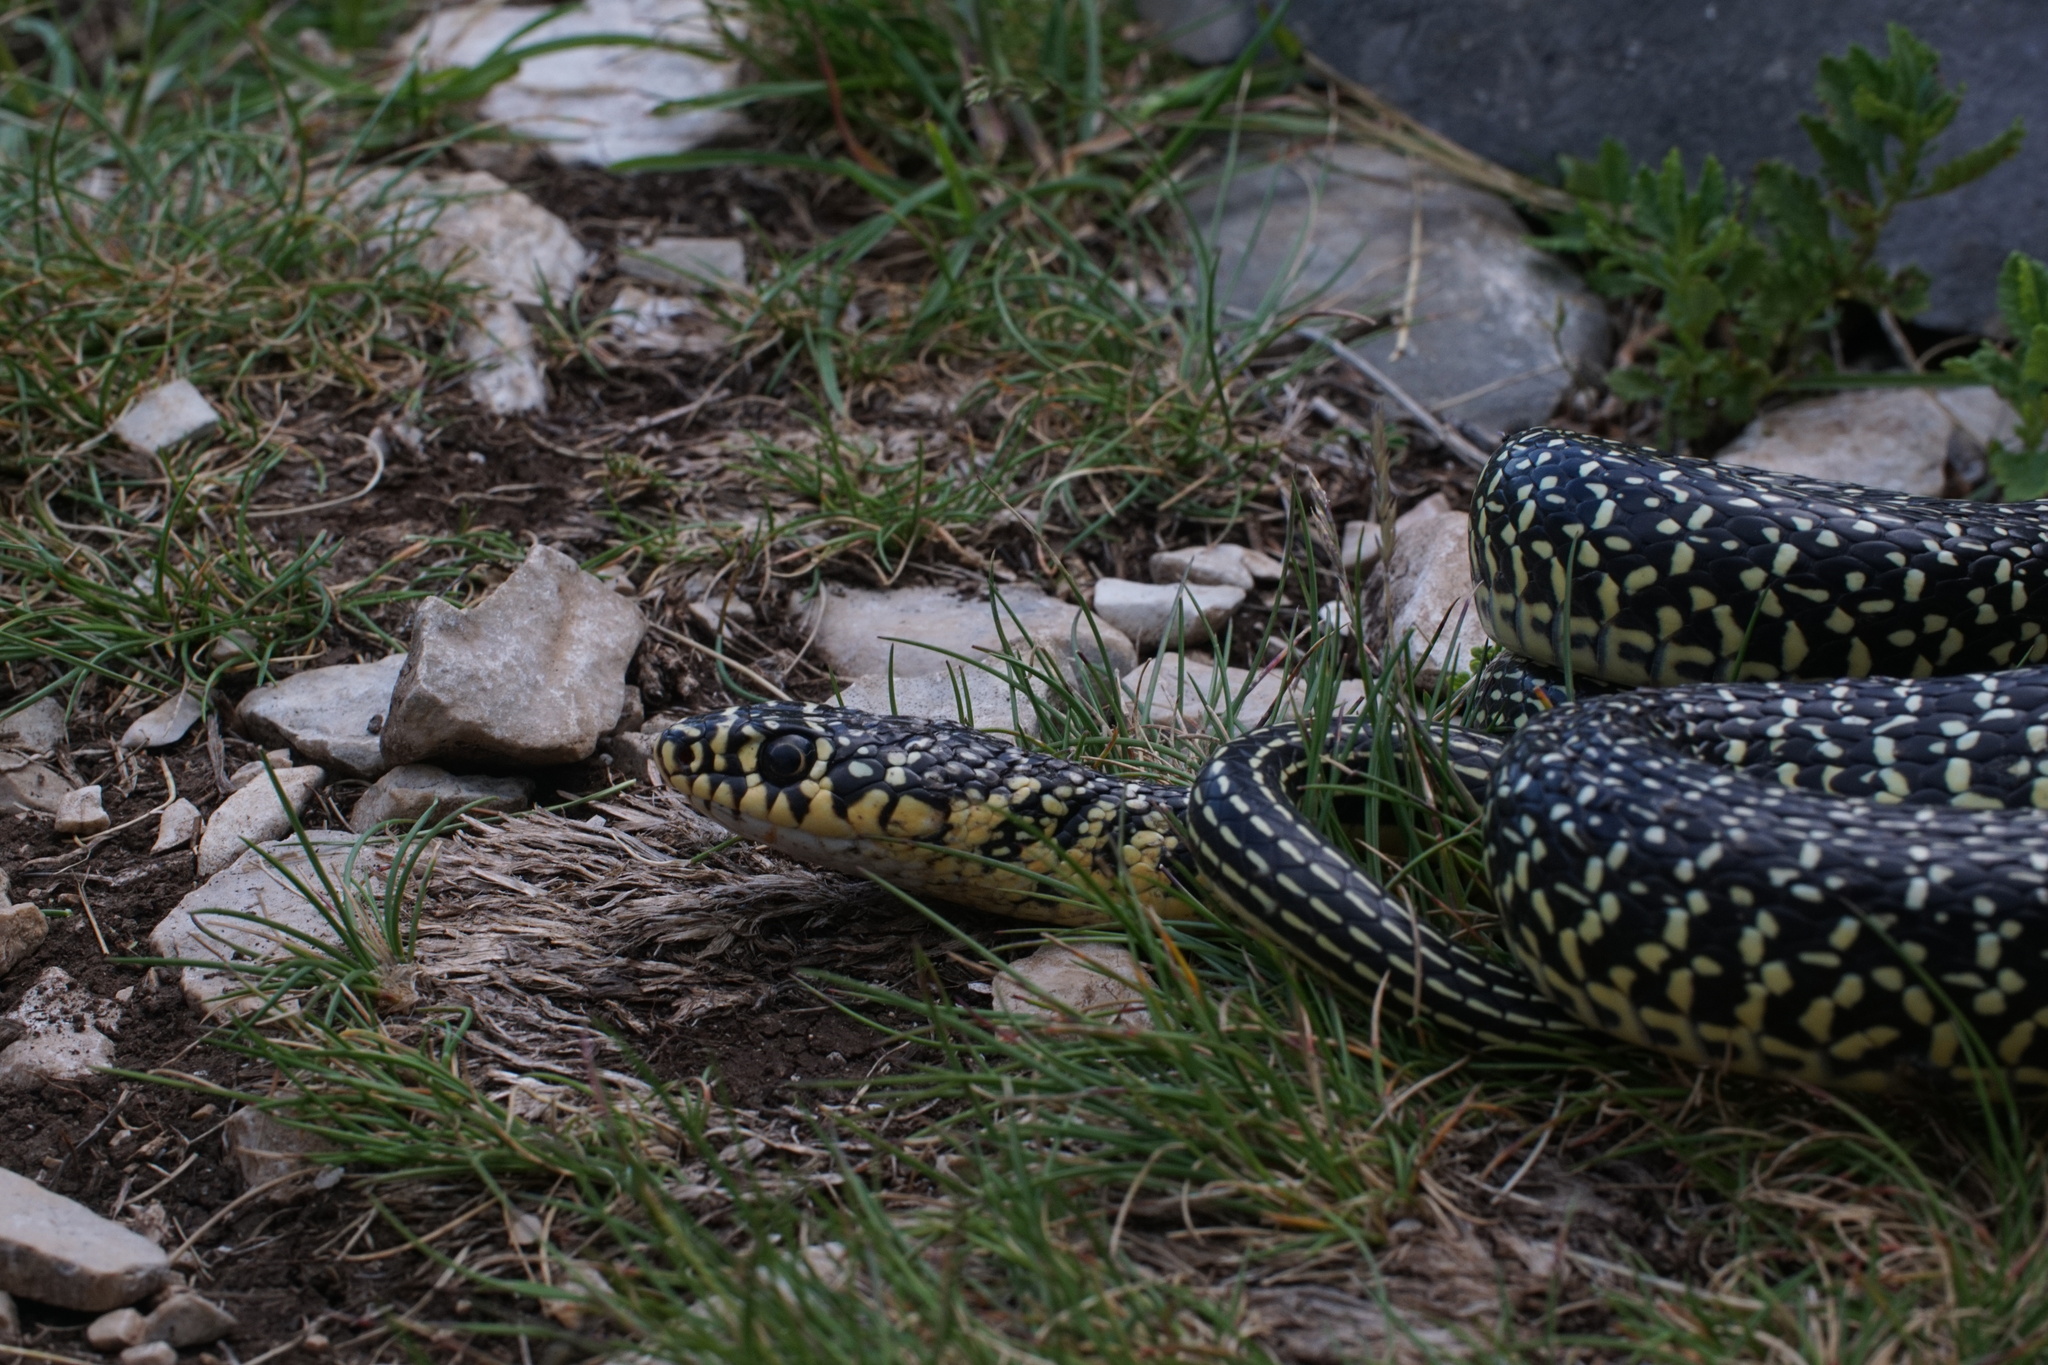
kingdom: Animalia
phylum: Chordata
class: Squamata
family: Colubridae
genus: Hierophis
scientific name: Hierophis viridiflavus
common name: Green whip snake
